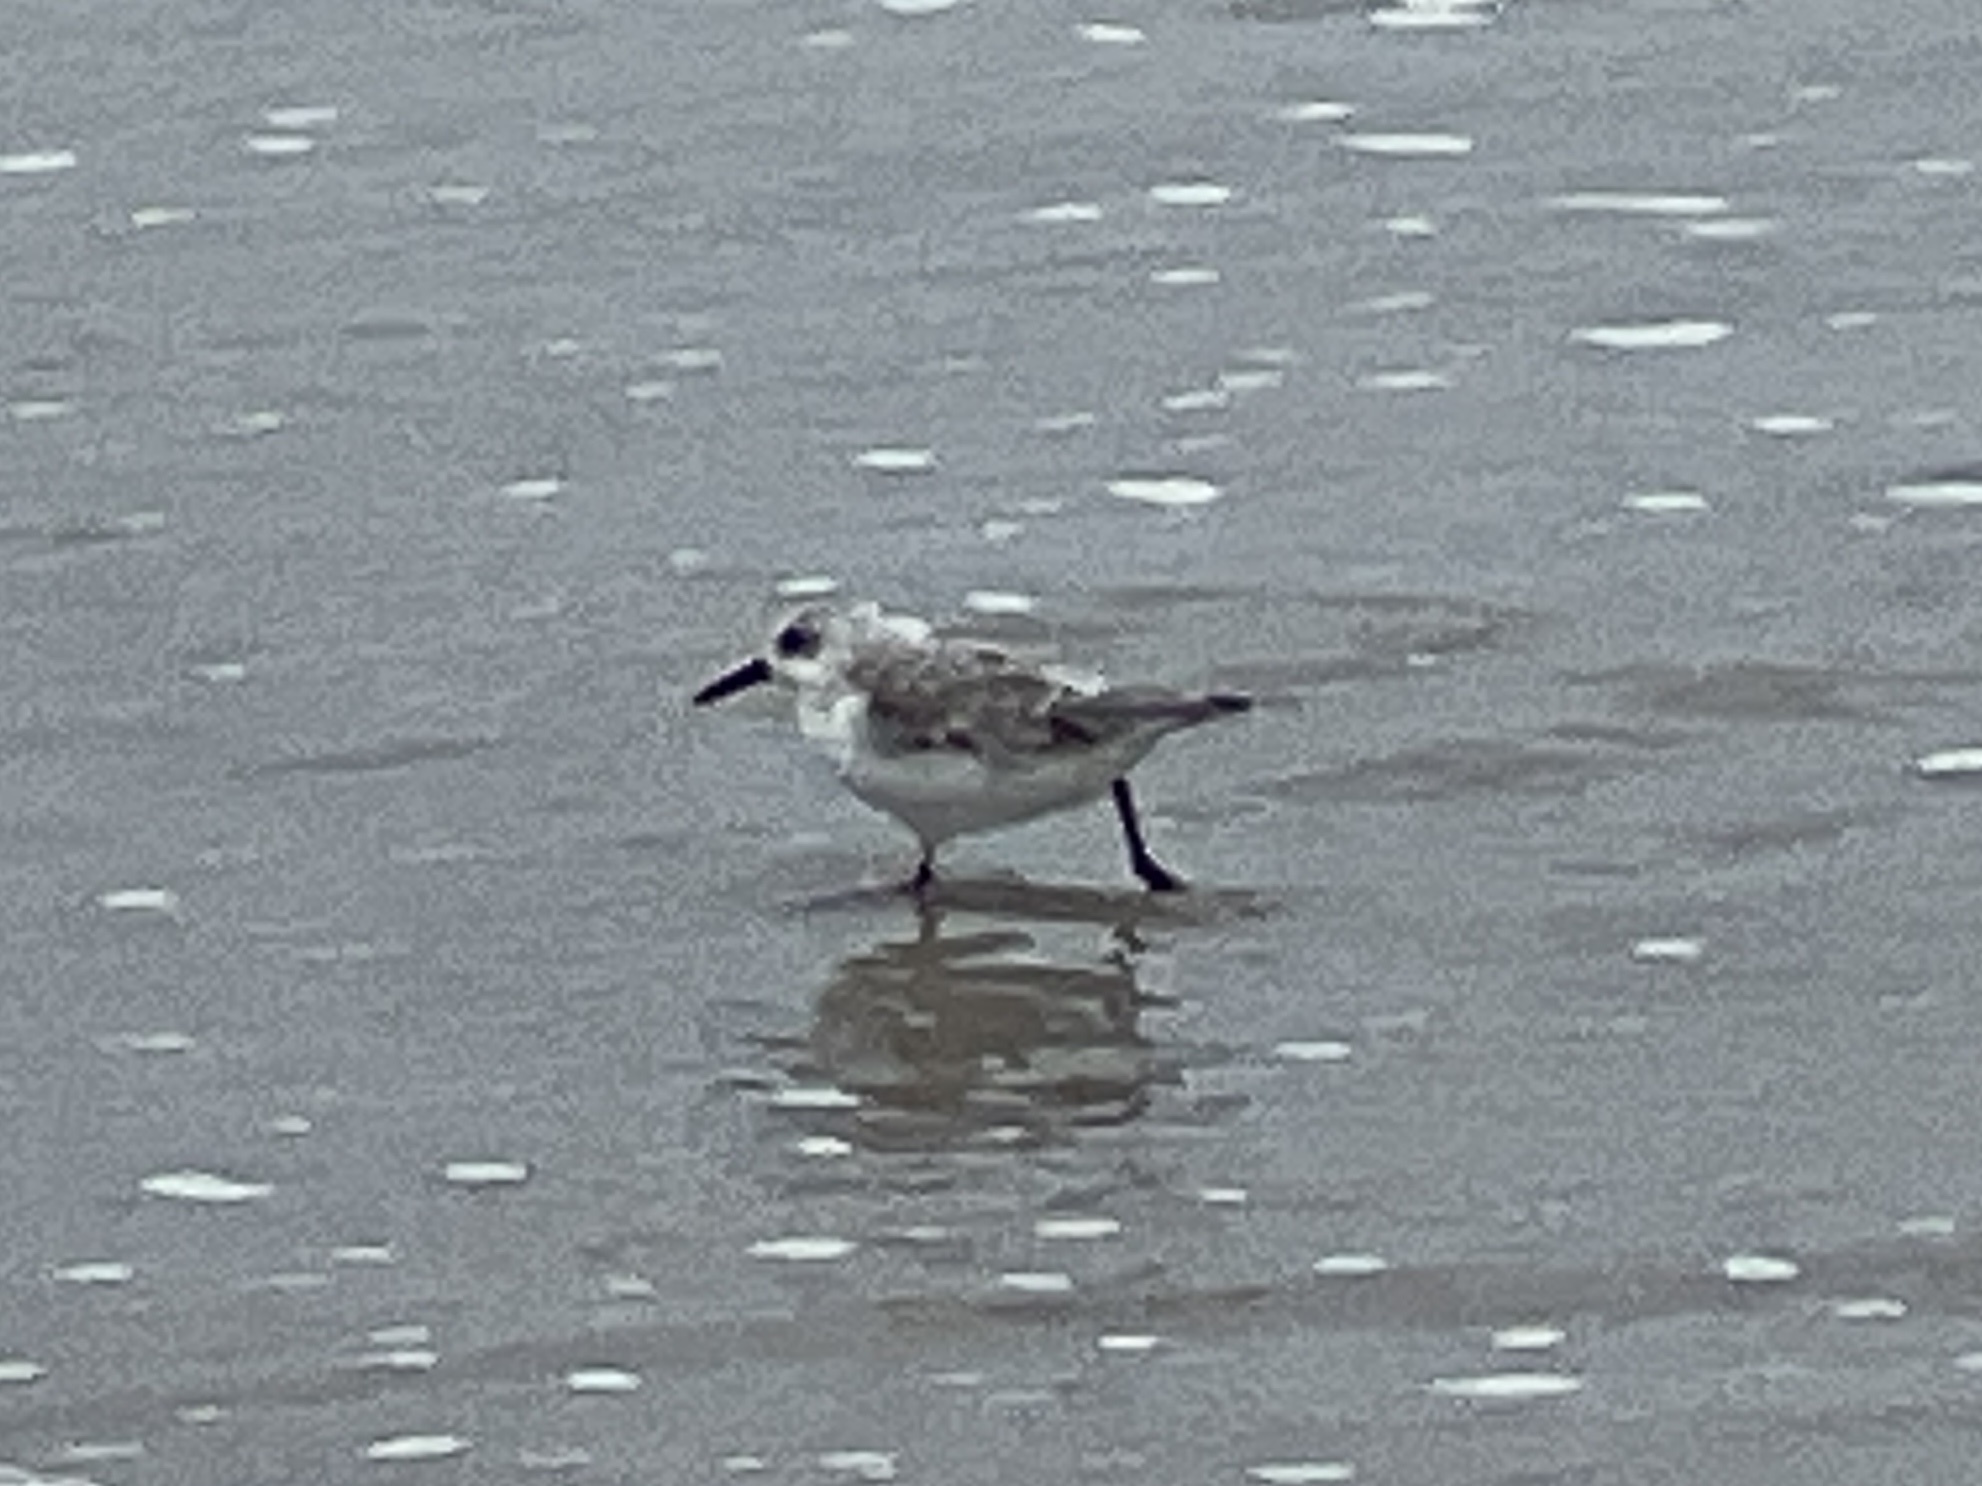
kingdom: Animalia
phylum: Chordata
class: Aves
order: Charadriiformes
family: Scolopacidae
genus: Calidris
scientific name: Calidris alba
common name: Sanderling
